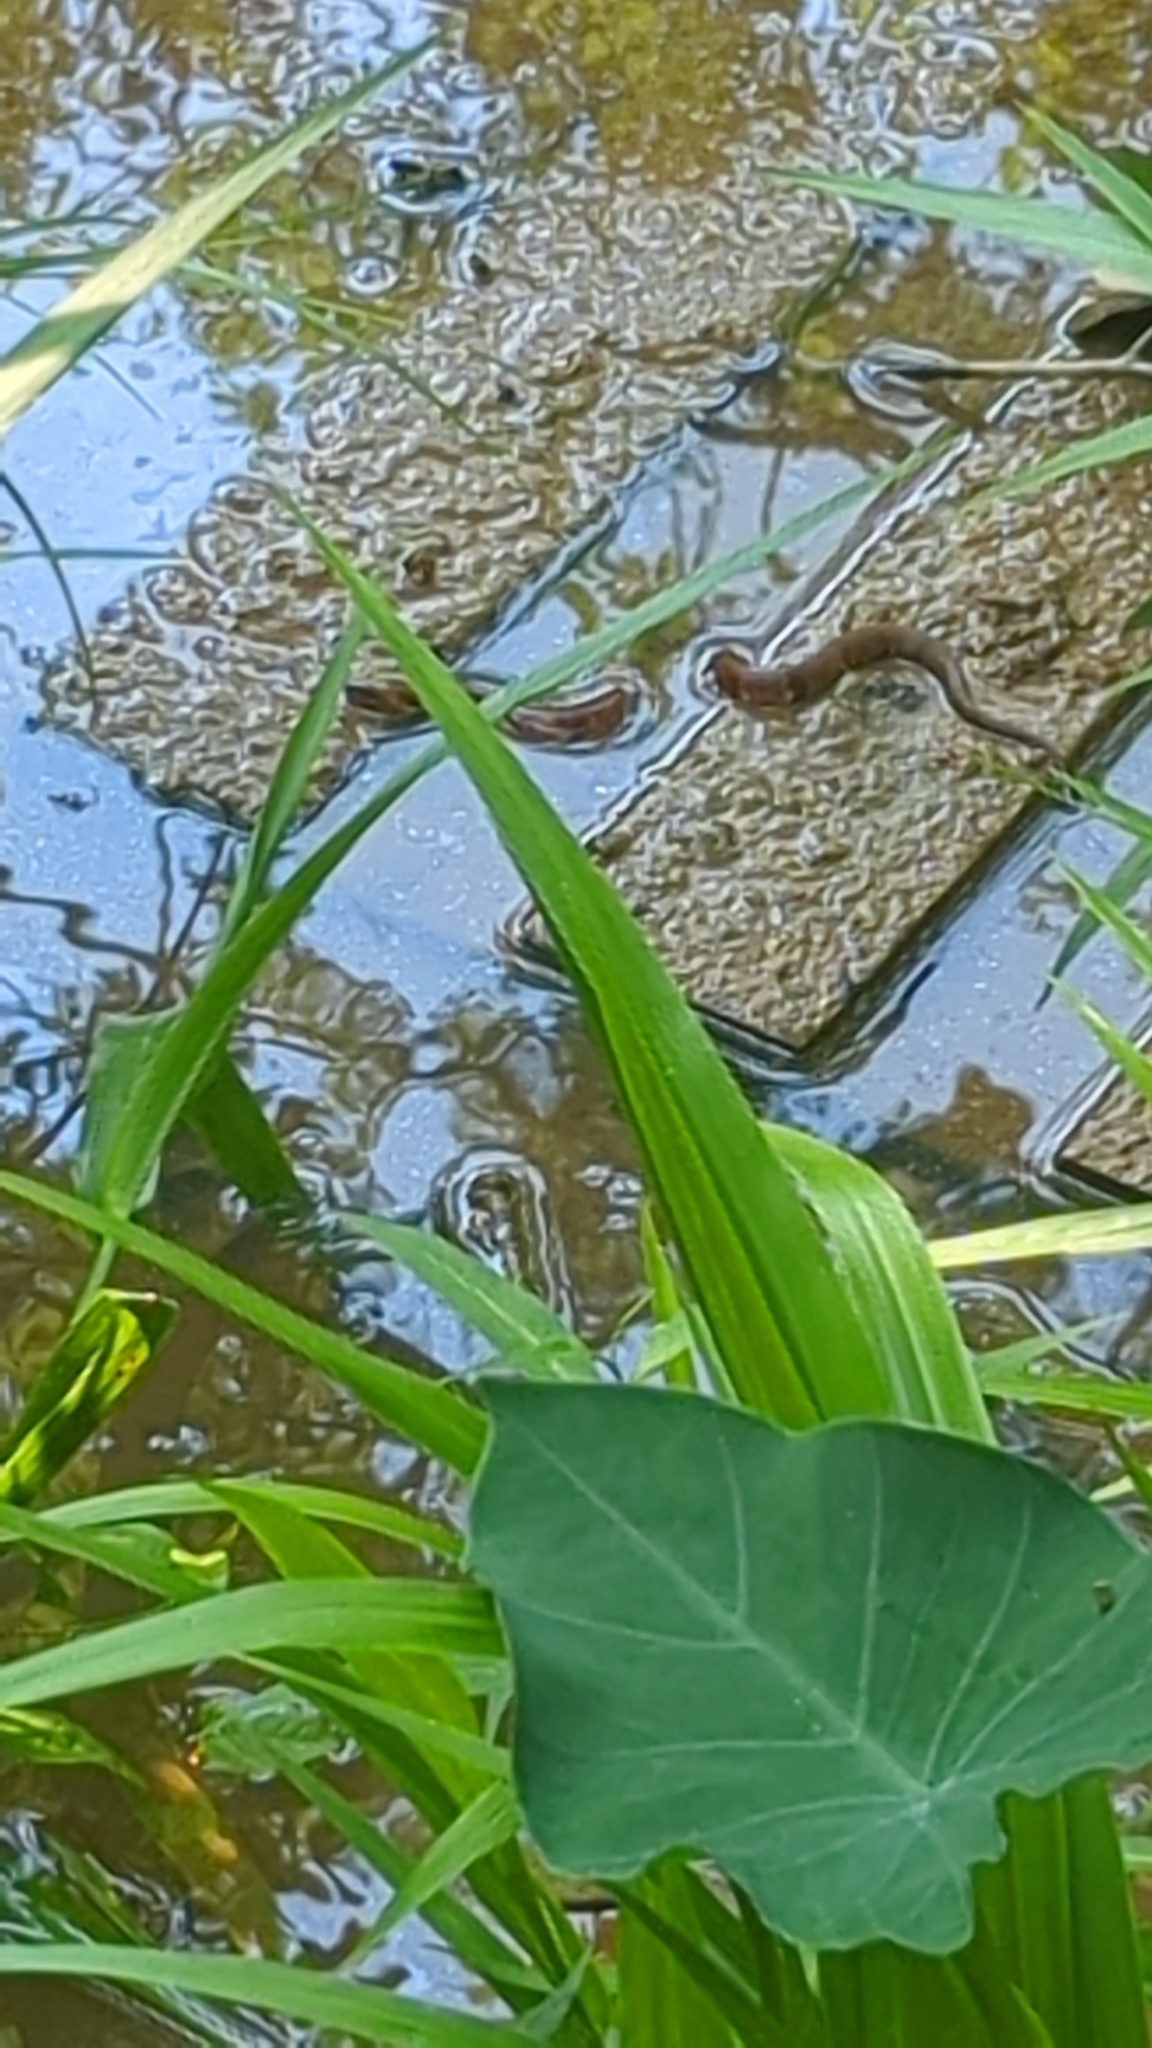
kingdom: Animalia
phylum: Chordata
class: Squamata
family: Colubridae
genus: Nerodia
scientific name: Nerodia fasciata
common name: Southern water snake
